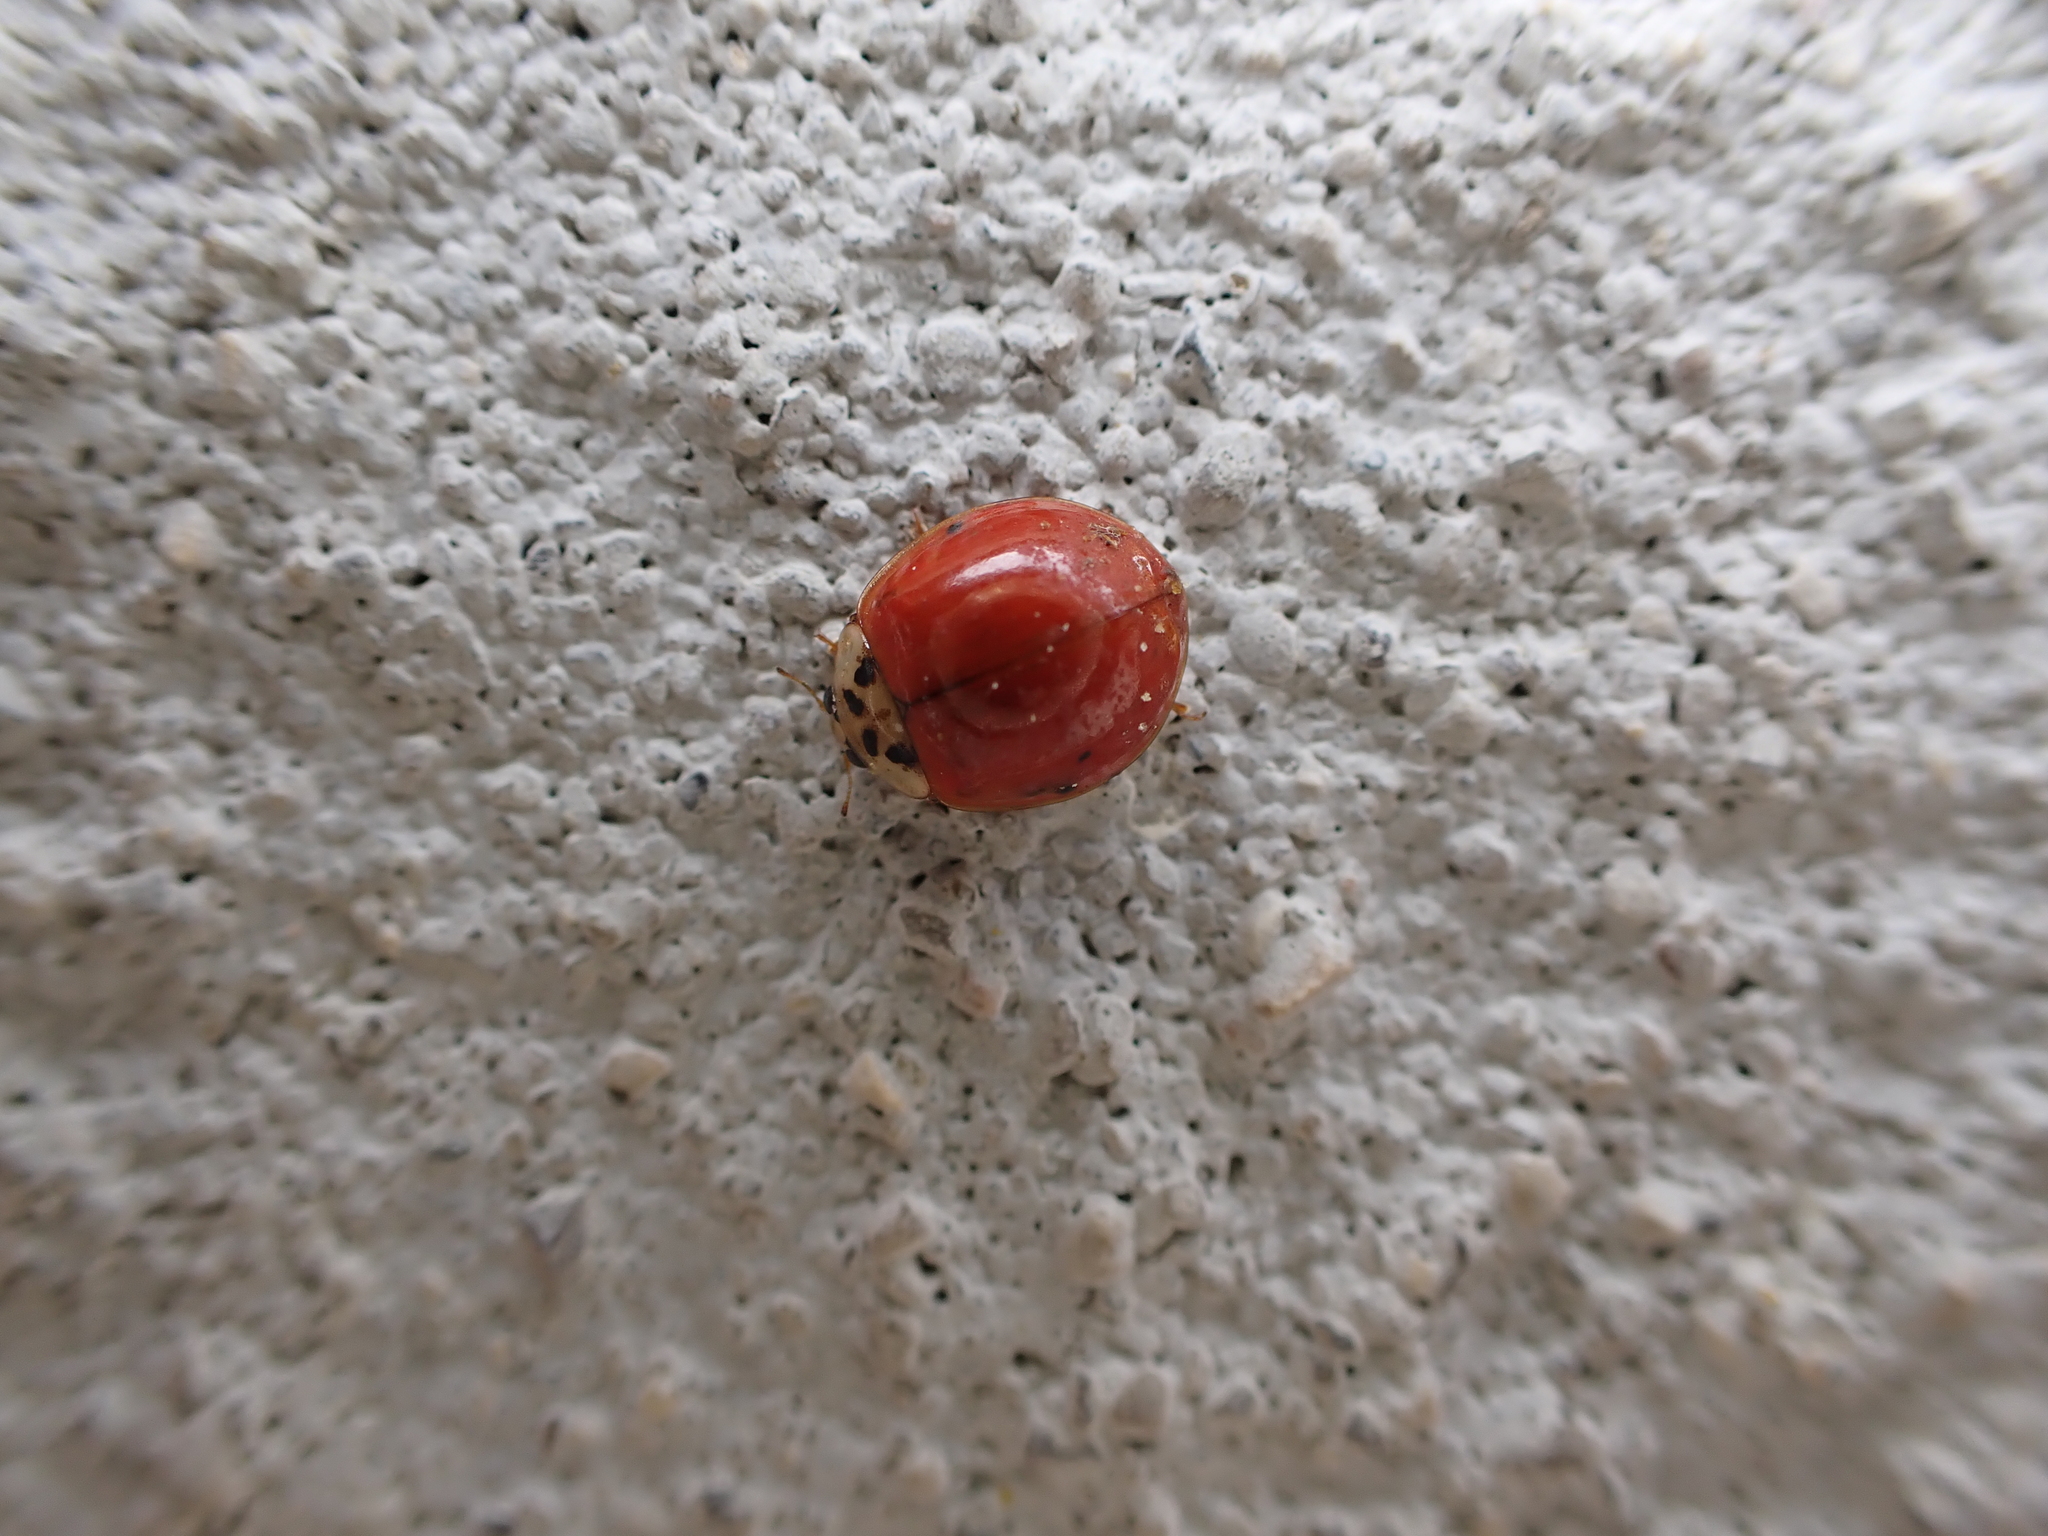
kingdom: Animalia
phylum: Arthropoda
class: Insecta
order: Coleoptera
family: Coccinellidae
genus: Harmonia
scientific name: Harmonia axyridis
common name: Harlequin ladybird
